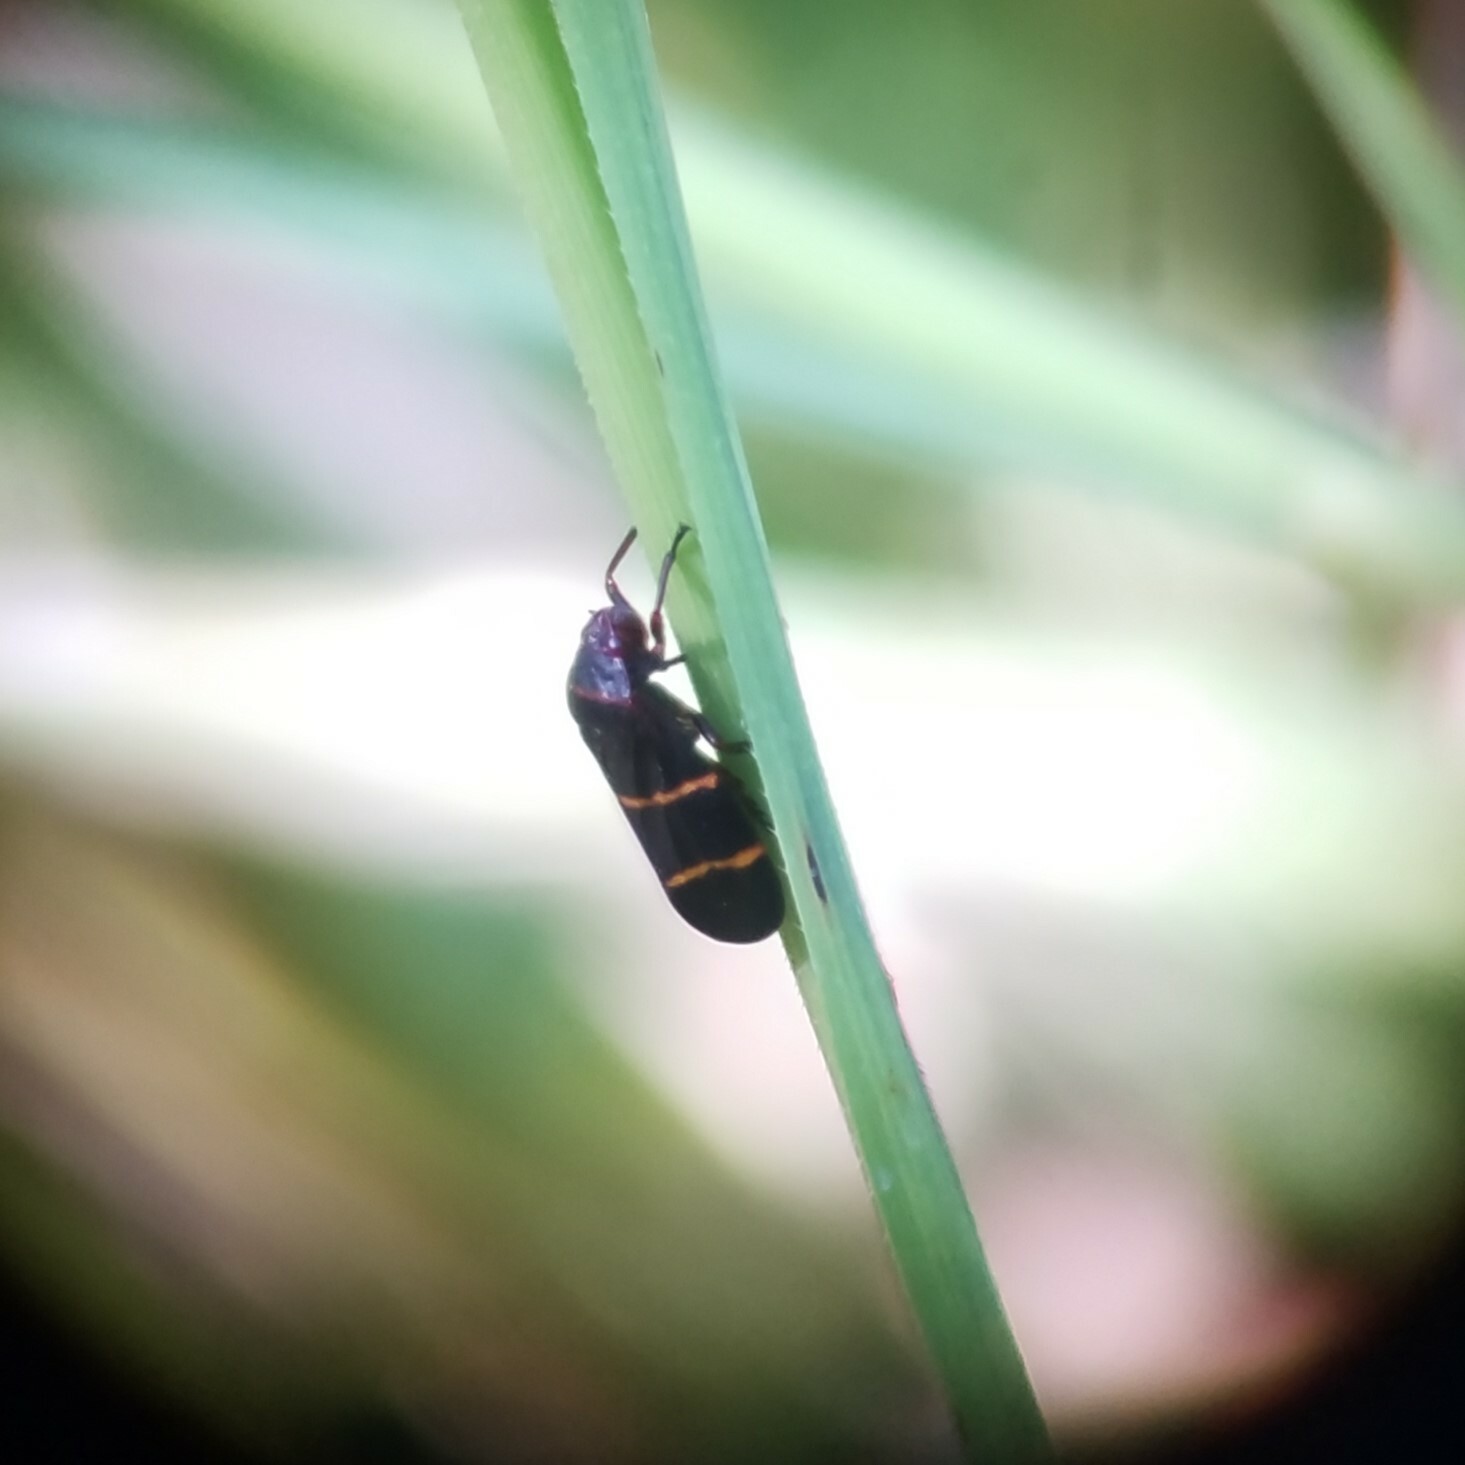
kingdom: Animalia
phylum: Arthropoda
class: Insecta
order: Hemiptera
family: Cercopidae
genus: Prosapia
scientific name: Prosapia bicincta
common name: Twolined spittlebug
